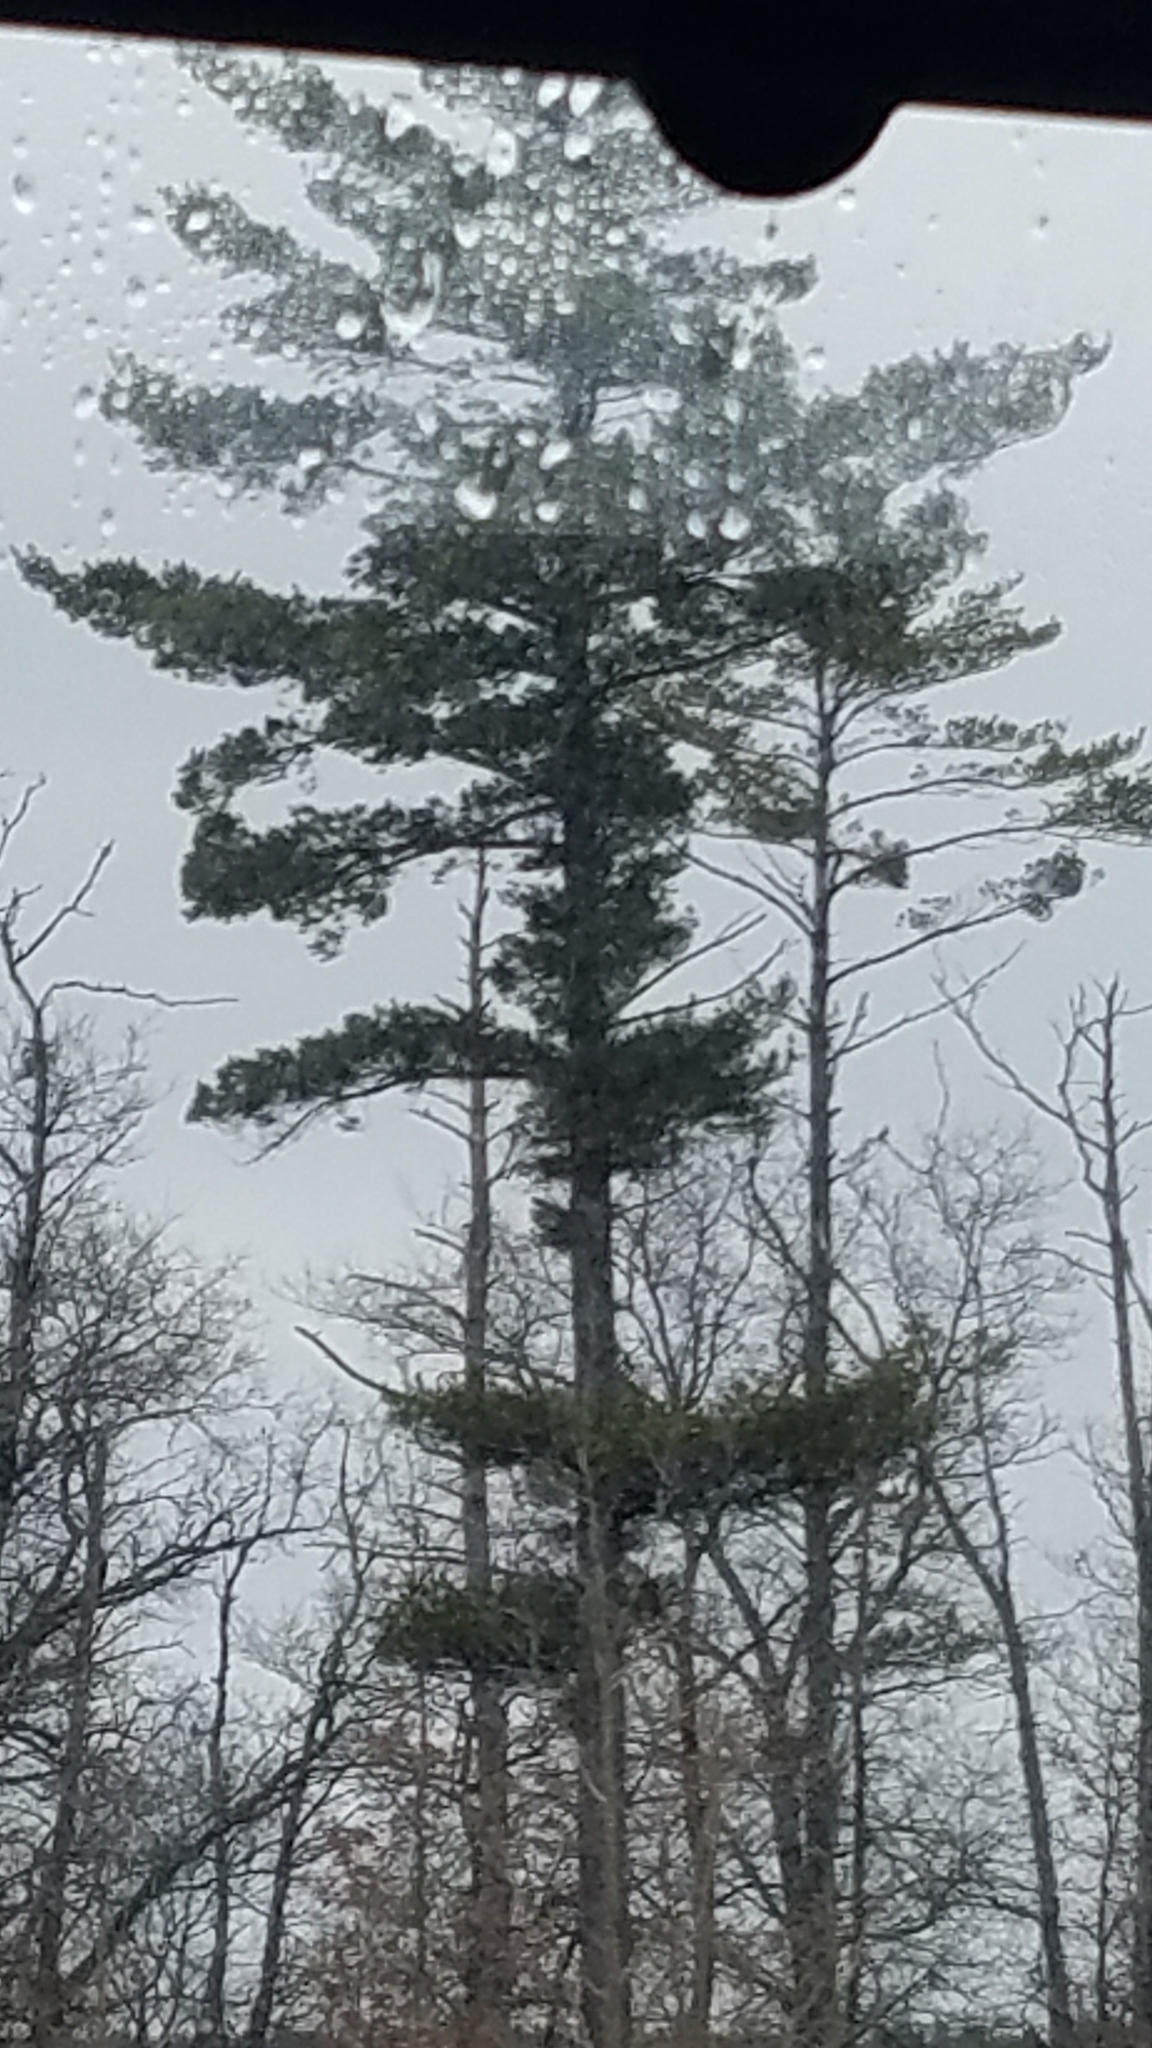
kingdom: Plantae
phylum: Tracheophyta
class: Pinopsida
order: Pinales
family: Pinaceae
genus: Pinus
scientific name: Pinus strobus
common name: Weymouth pine
